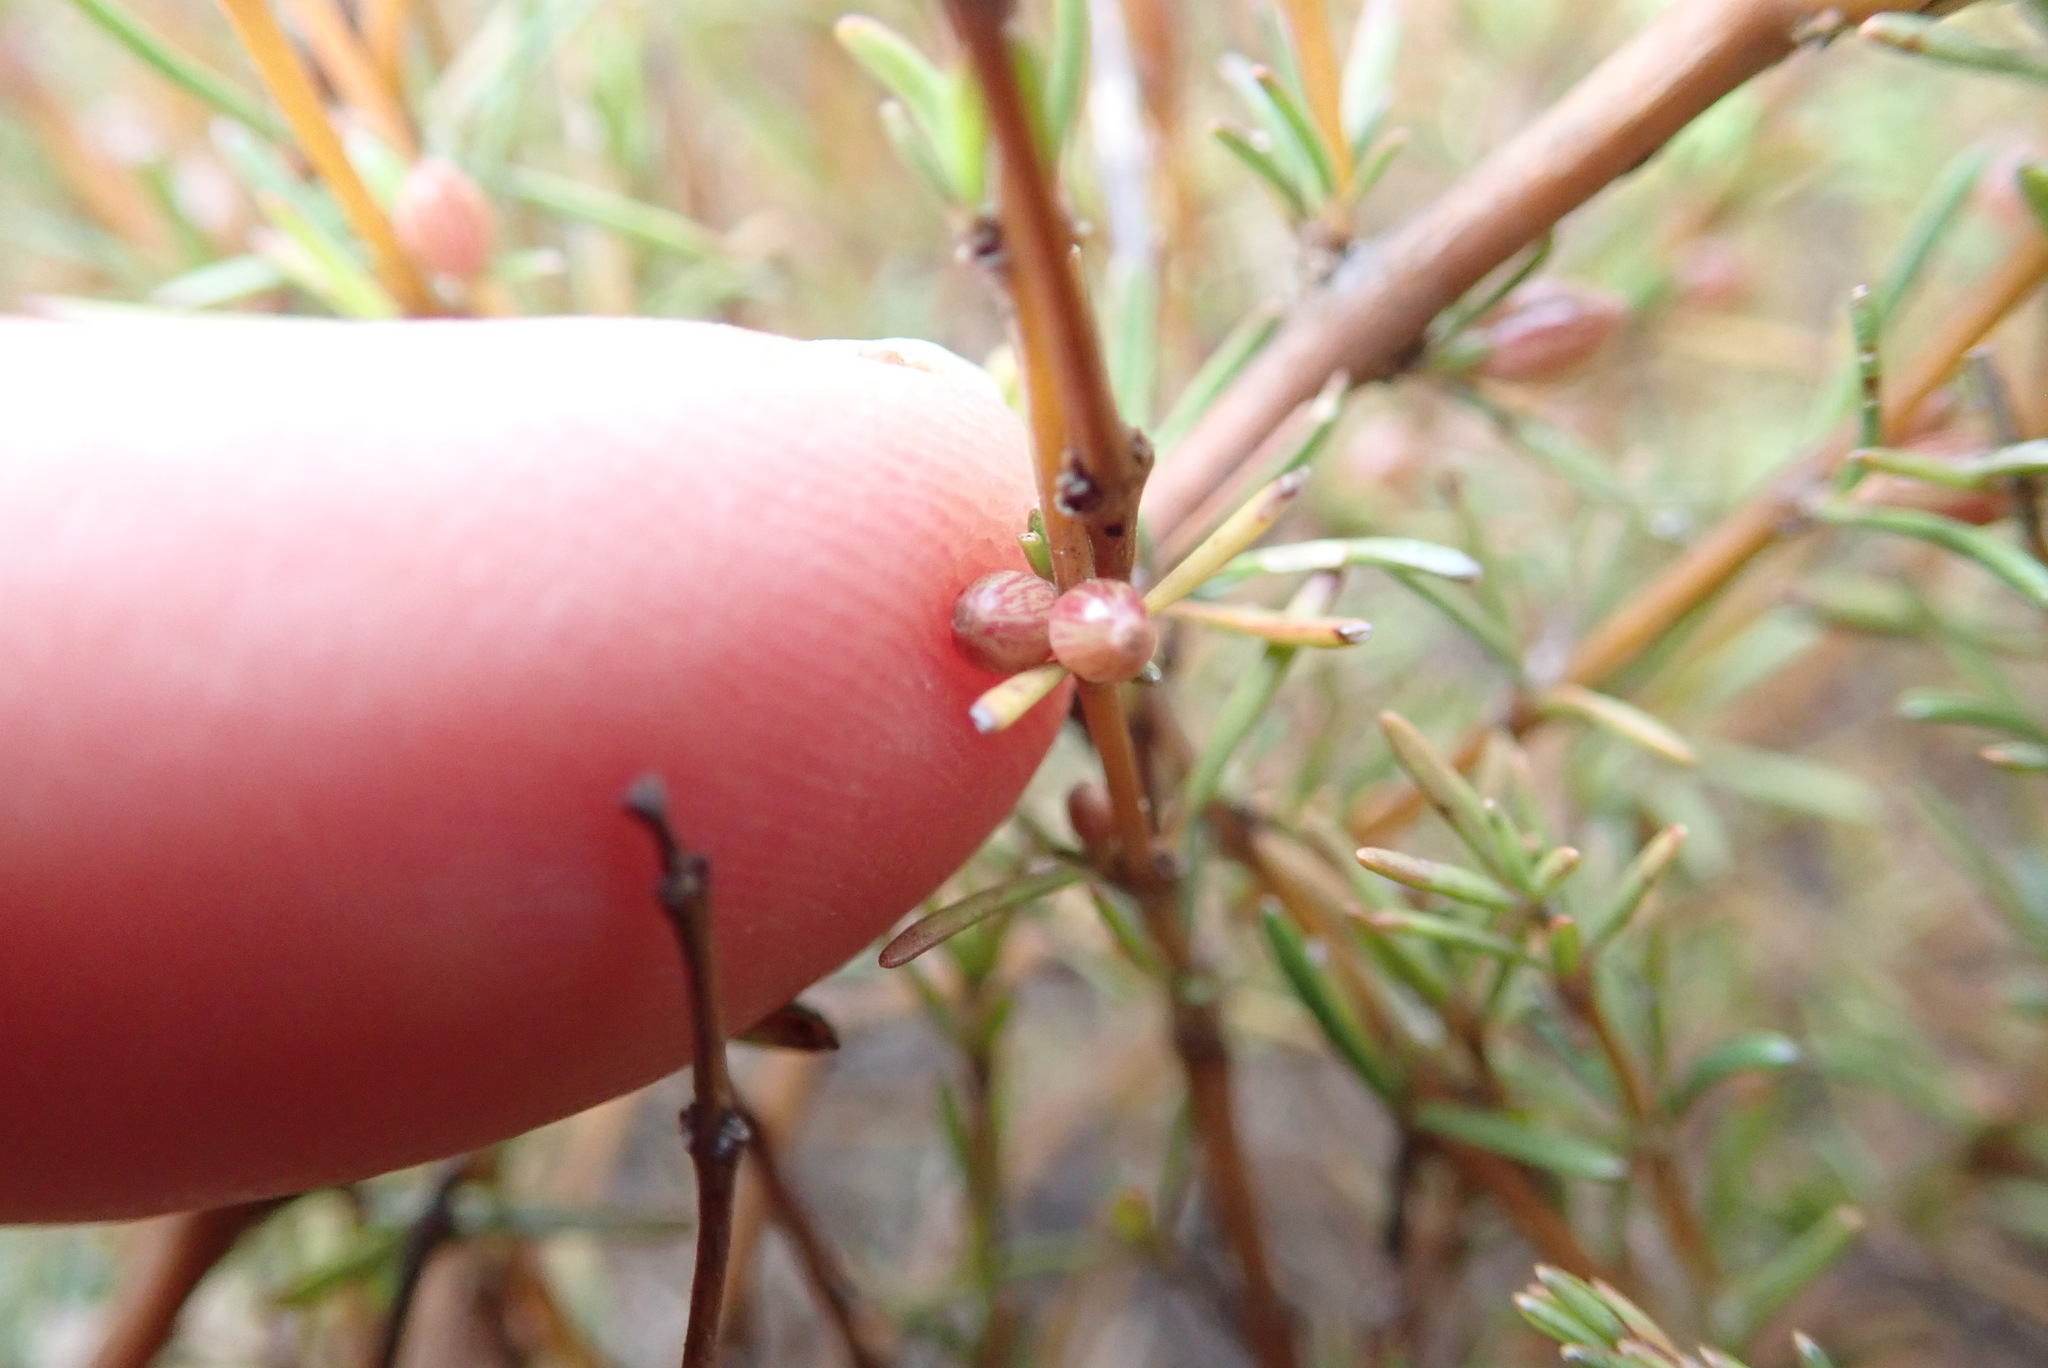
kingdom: Plantae
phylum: Tracheophyta
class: Magnoliopsida
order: Gentianales
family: Rubiaceae
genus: Coprosma
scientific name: Coprosma acerosa
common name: Sand coprosma
